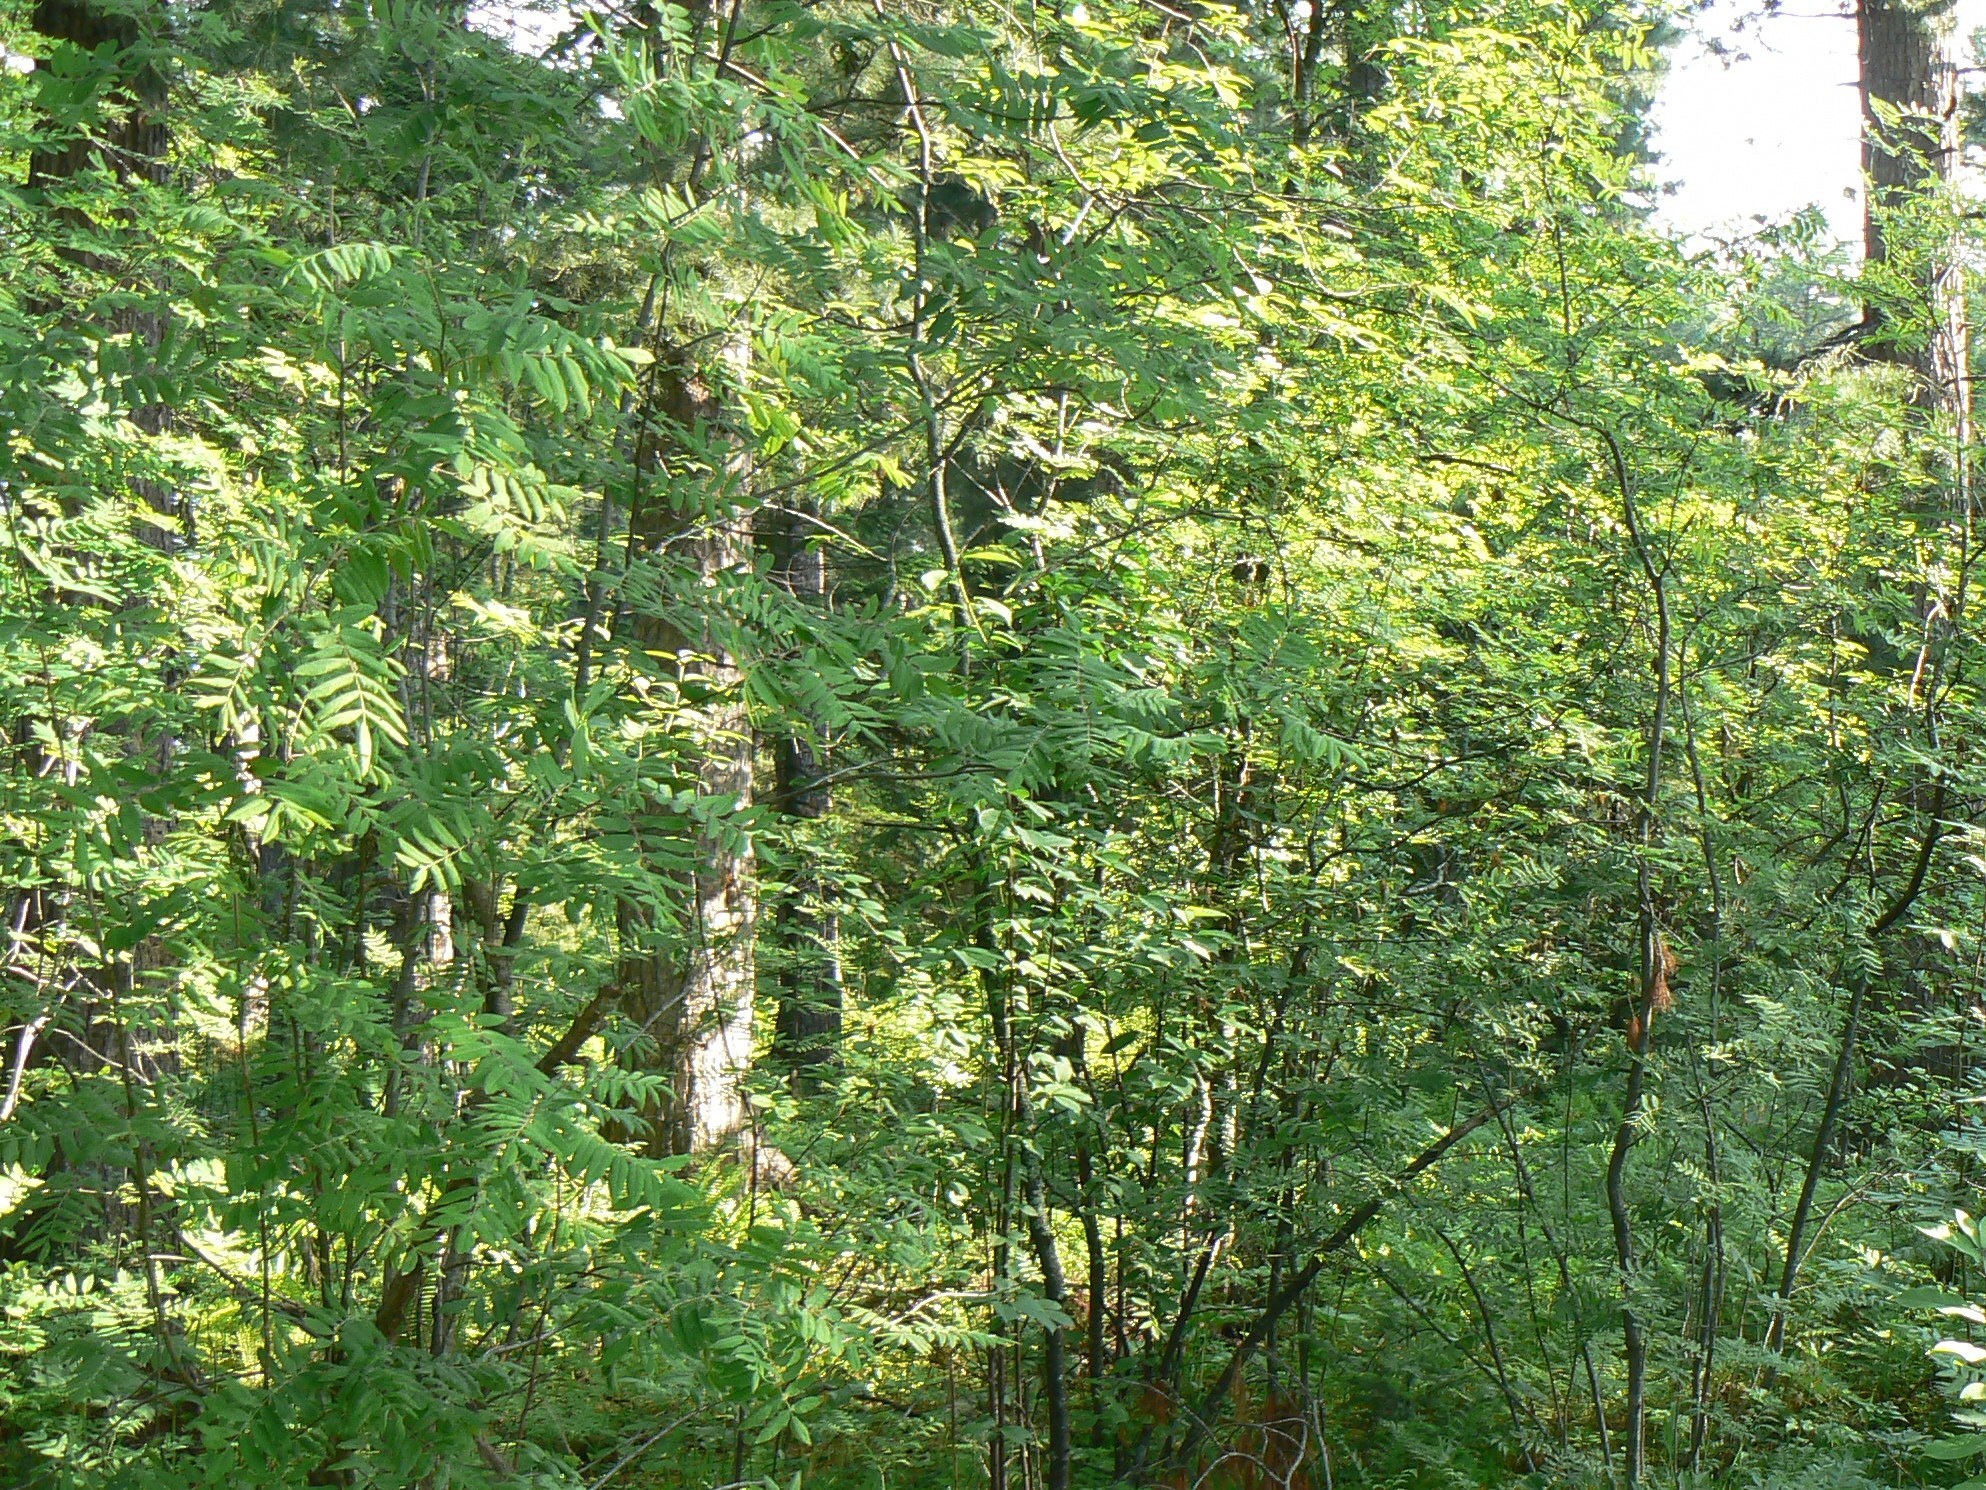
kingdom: Plantae
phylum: Tracheophyta
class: Magnoliopsida
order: Rosales
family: Rosaceae
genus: Sorbus
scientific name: Sorbus aucuparia
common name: Rowan
